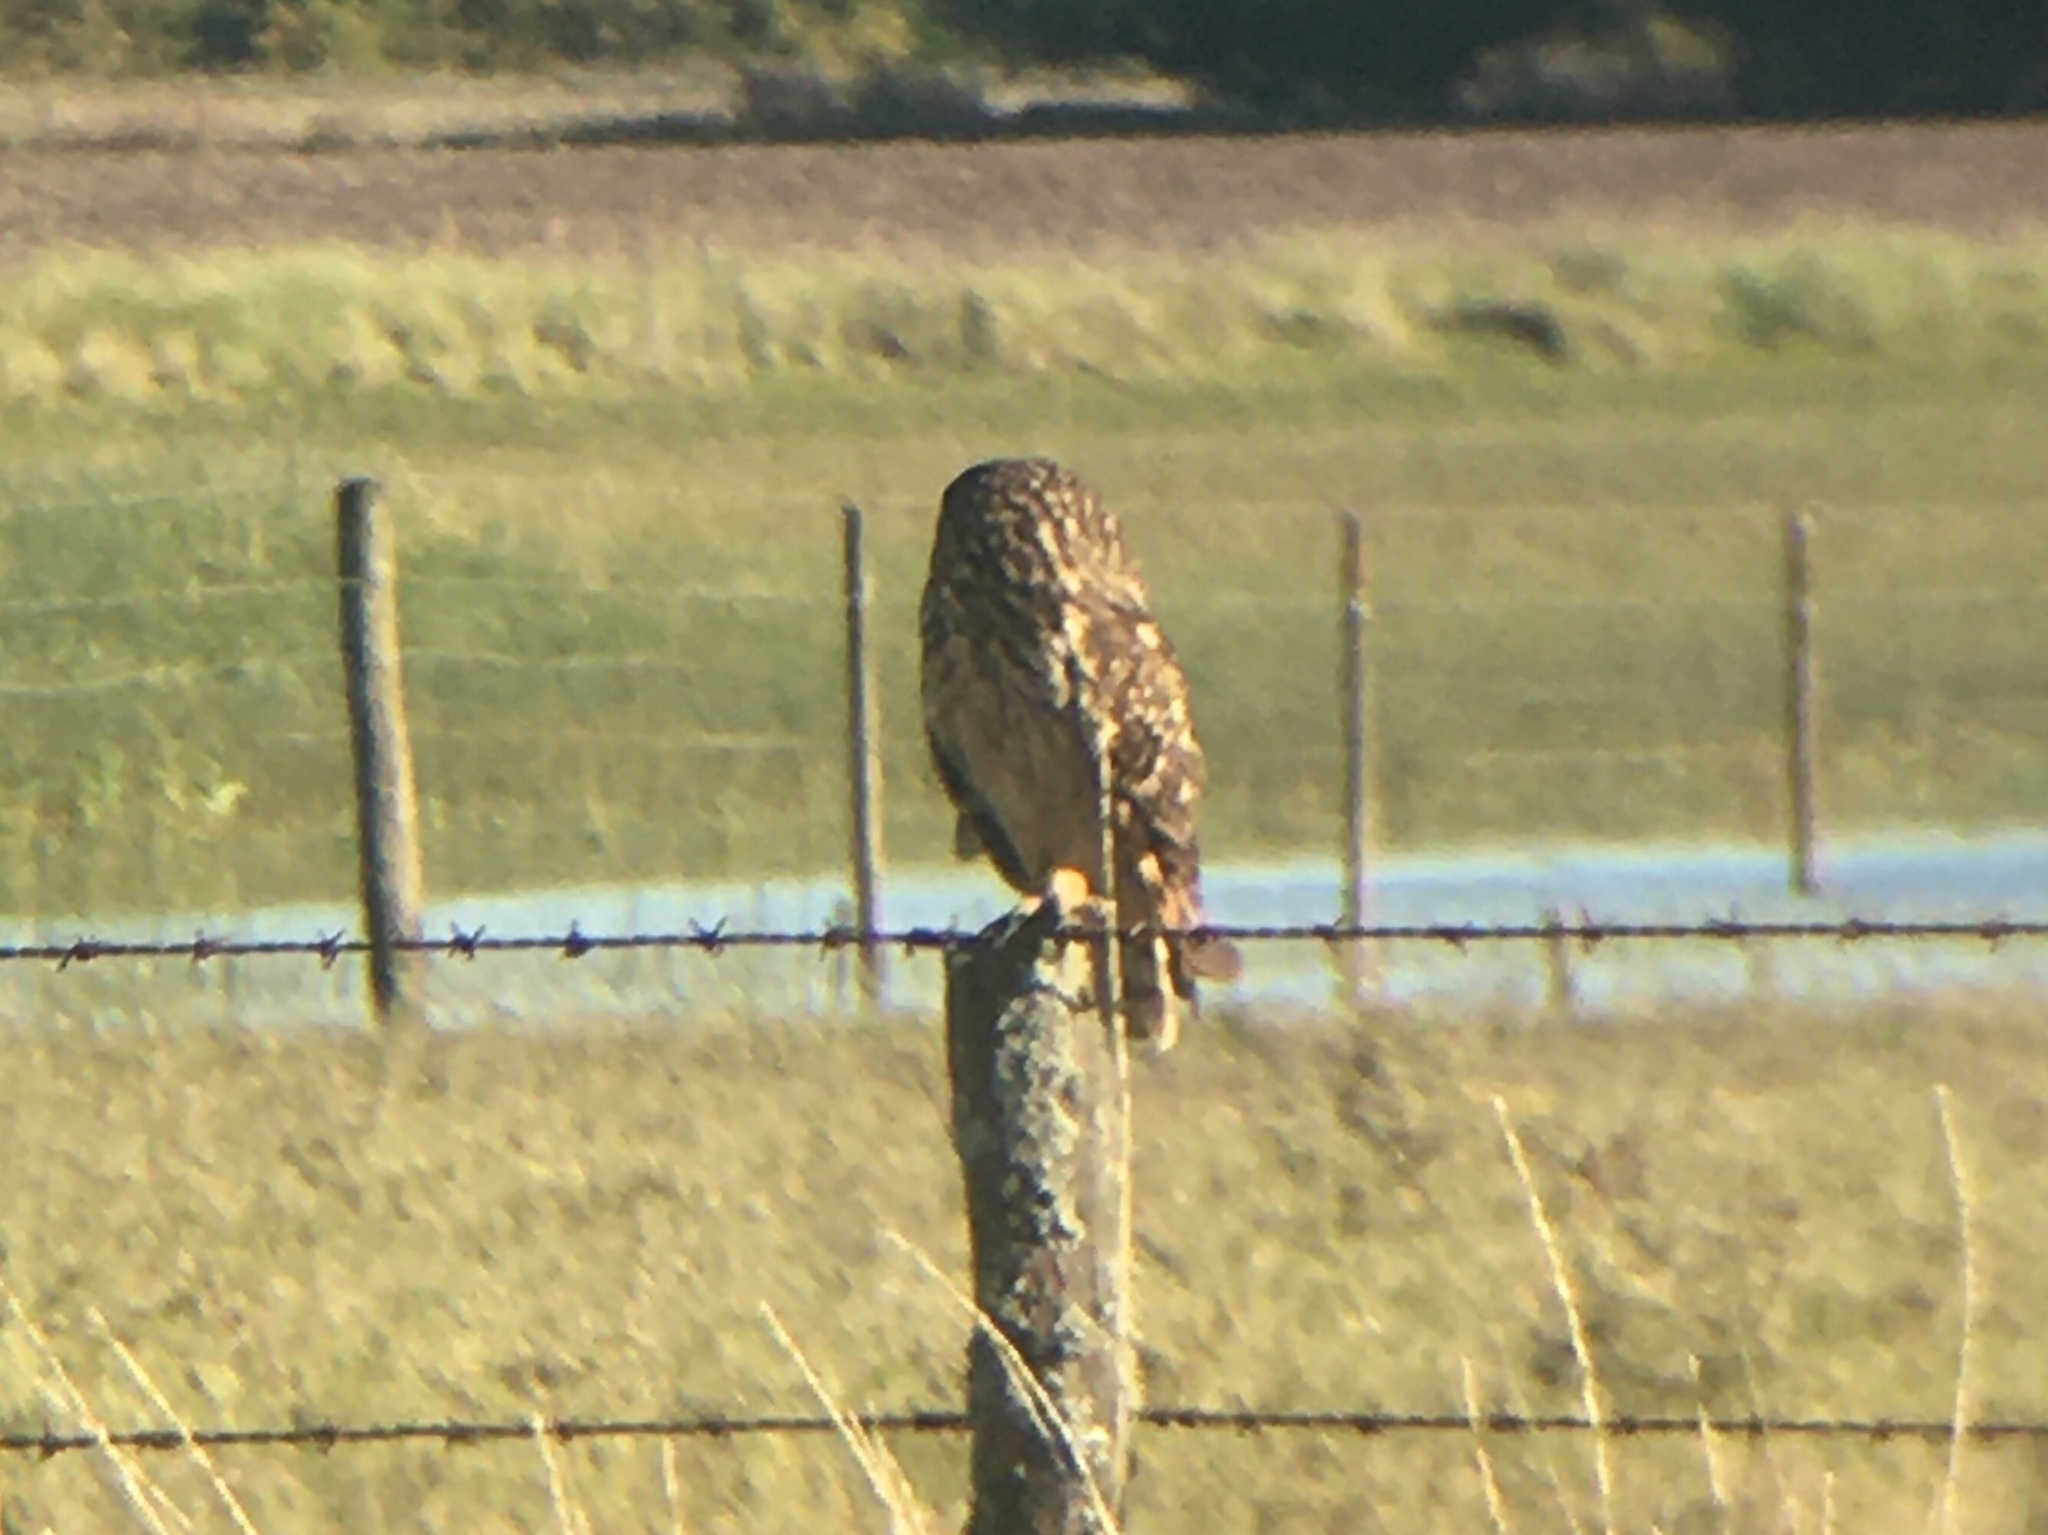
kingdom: Animalia
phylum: Chordata
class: Aves
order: Strigiformes
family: Strigidae
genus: Asio
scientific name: Asio flammeus
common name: Short-eared owl
